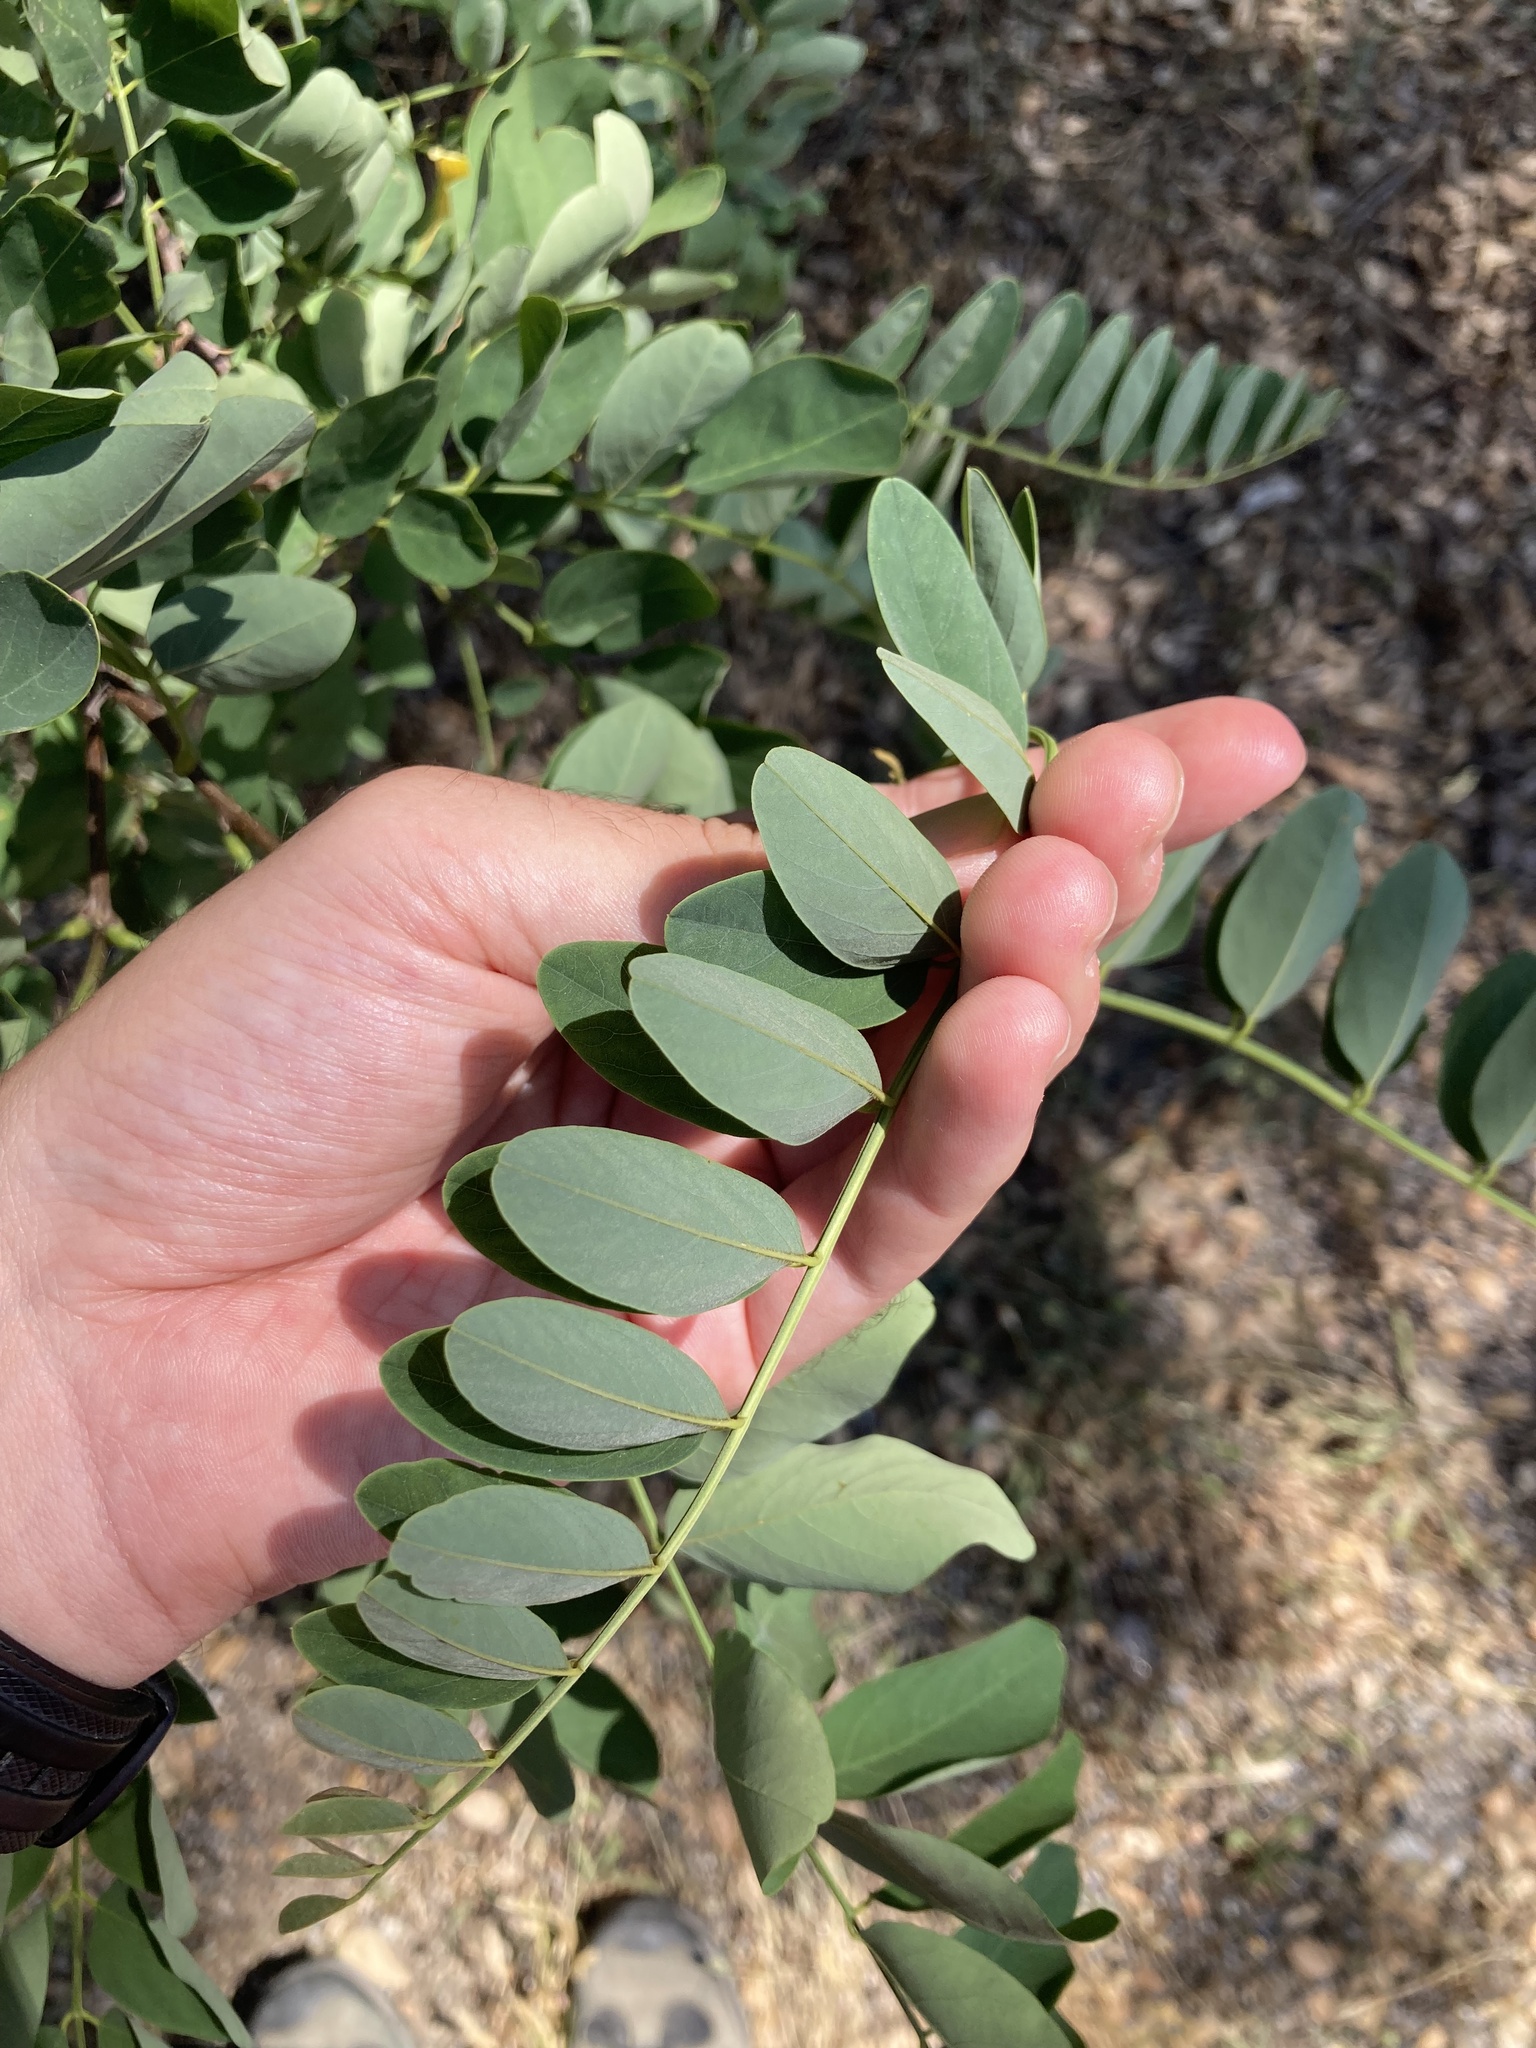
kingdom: Plantae
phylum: Tracheophyta
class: Magnoliopsida
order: Fabales
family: Fabaceae
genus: Robinia
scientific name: Robinia pseudoacacia
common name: Black locust
